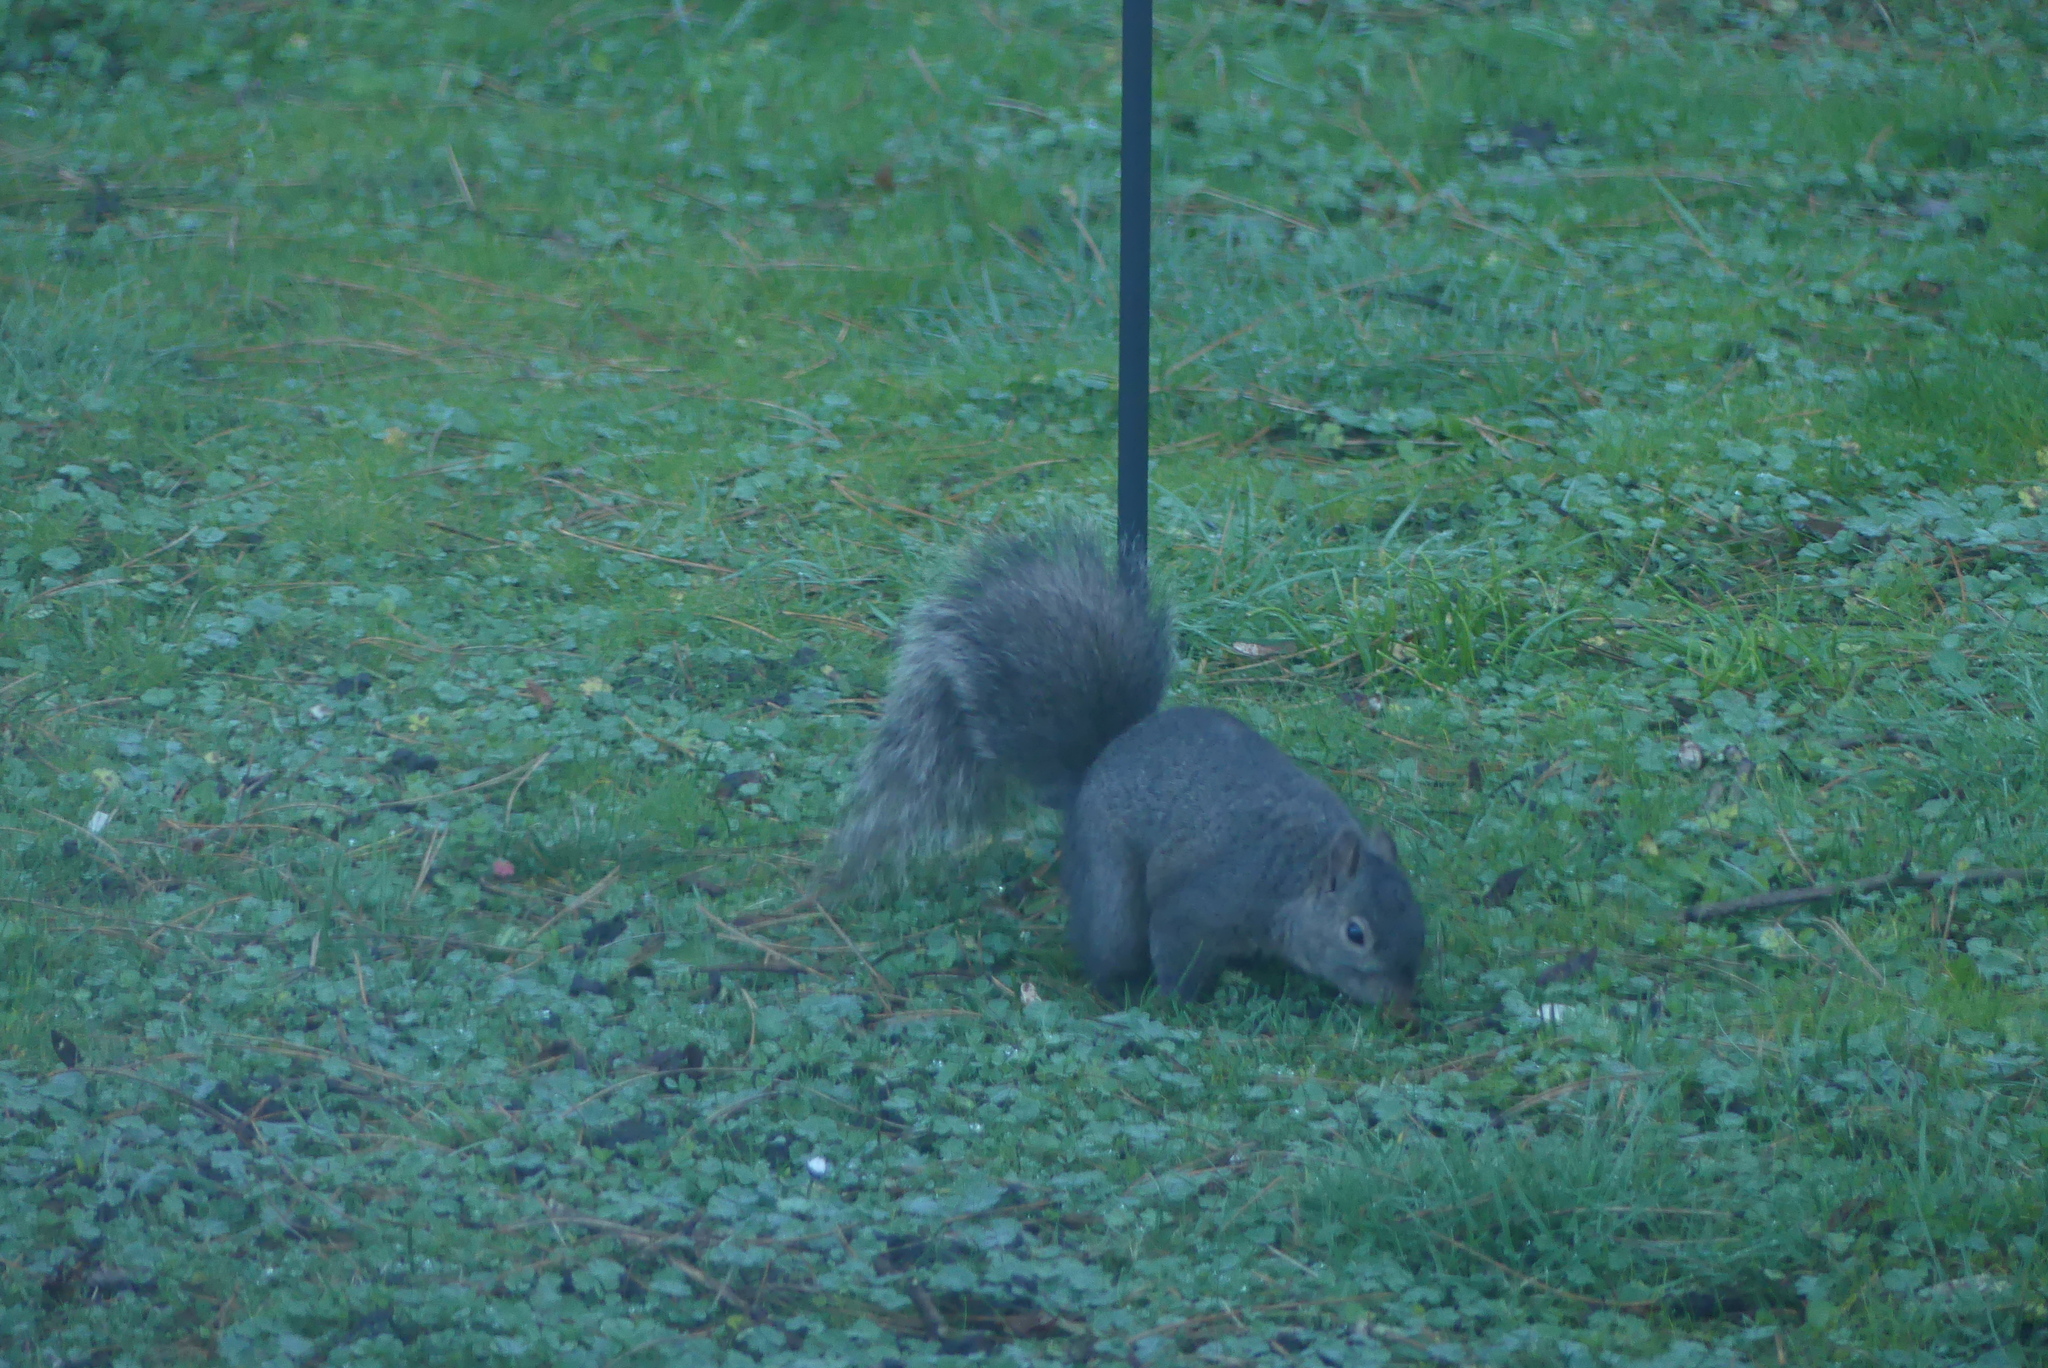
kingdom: Animalia
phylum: Chordata
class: Mammalia
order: Rodentia
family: Sciuridae
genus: Sciurus
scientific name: Sciurus carolinensis
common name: Eastern gray squirrel
